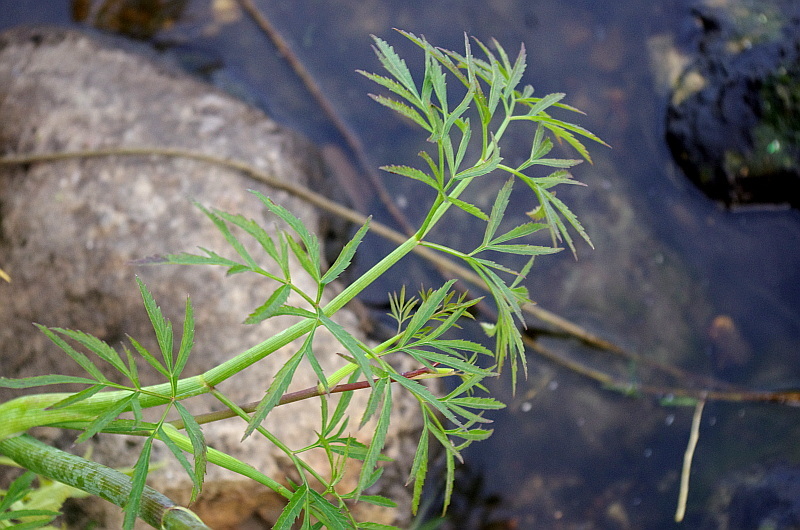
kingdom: Plantae
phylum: Tracheophyta
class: Magnoliopsida
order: Apiales
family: Apiaceae
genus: Cicuta
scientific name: Cicuta virosa
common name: Cowbane
